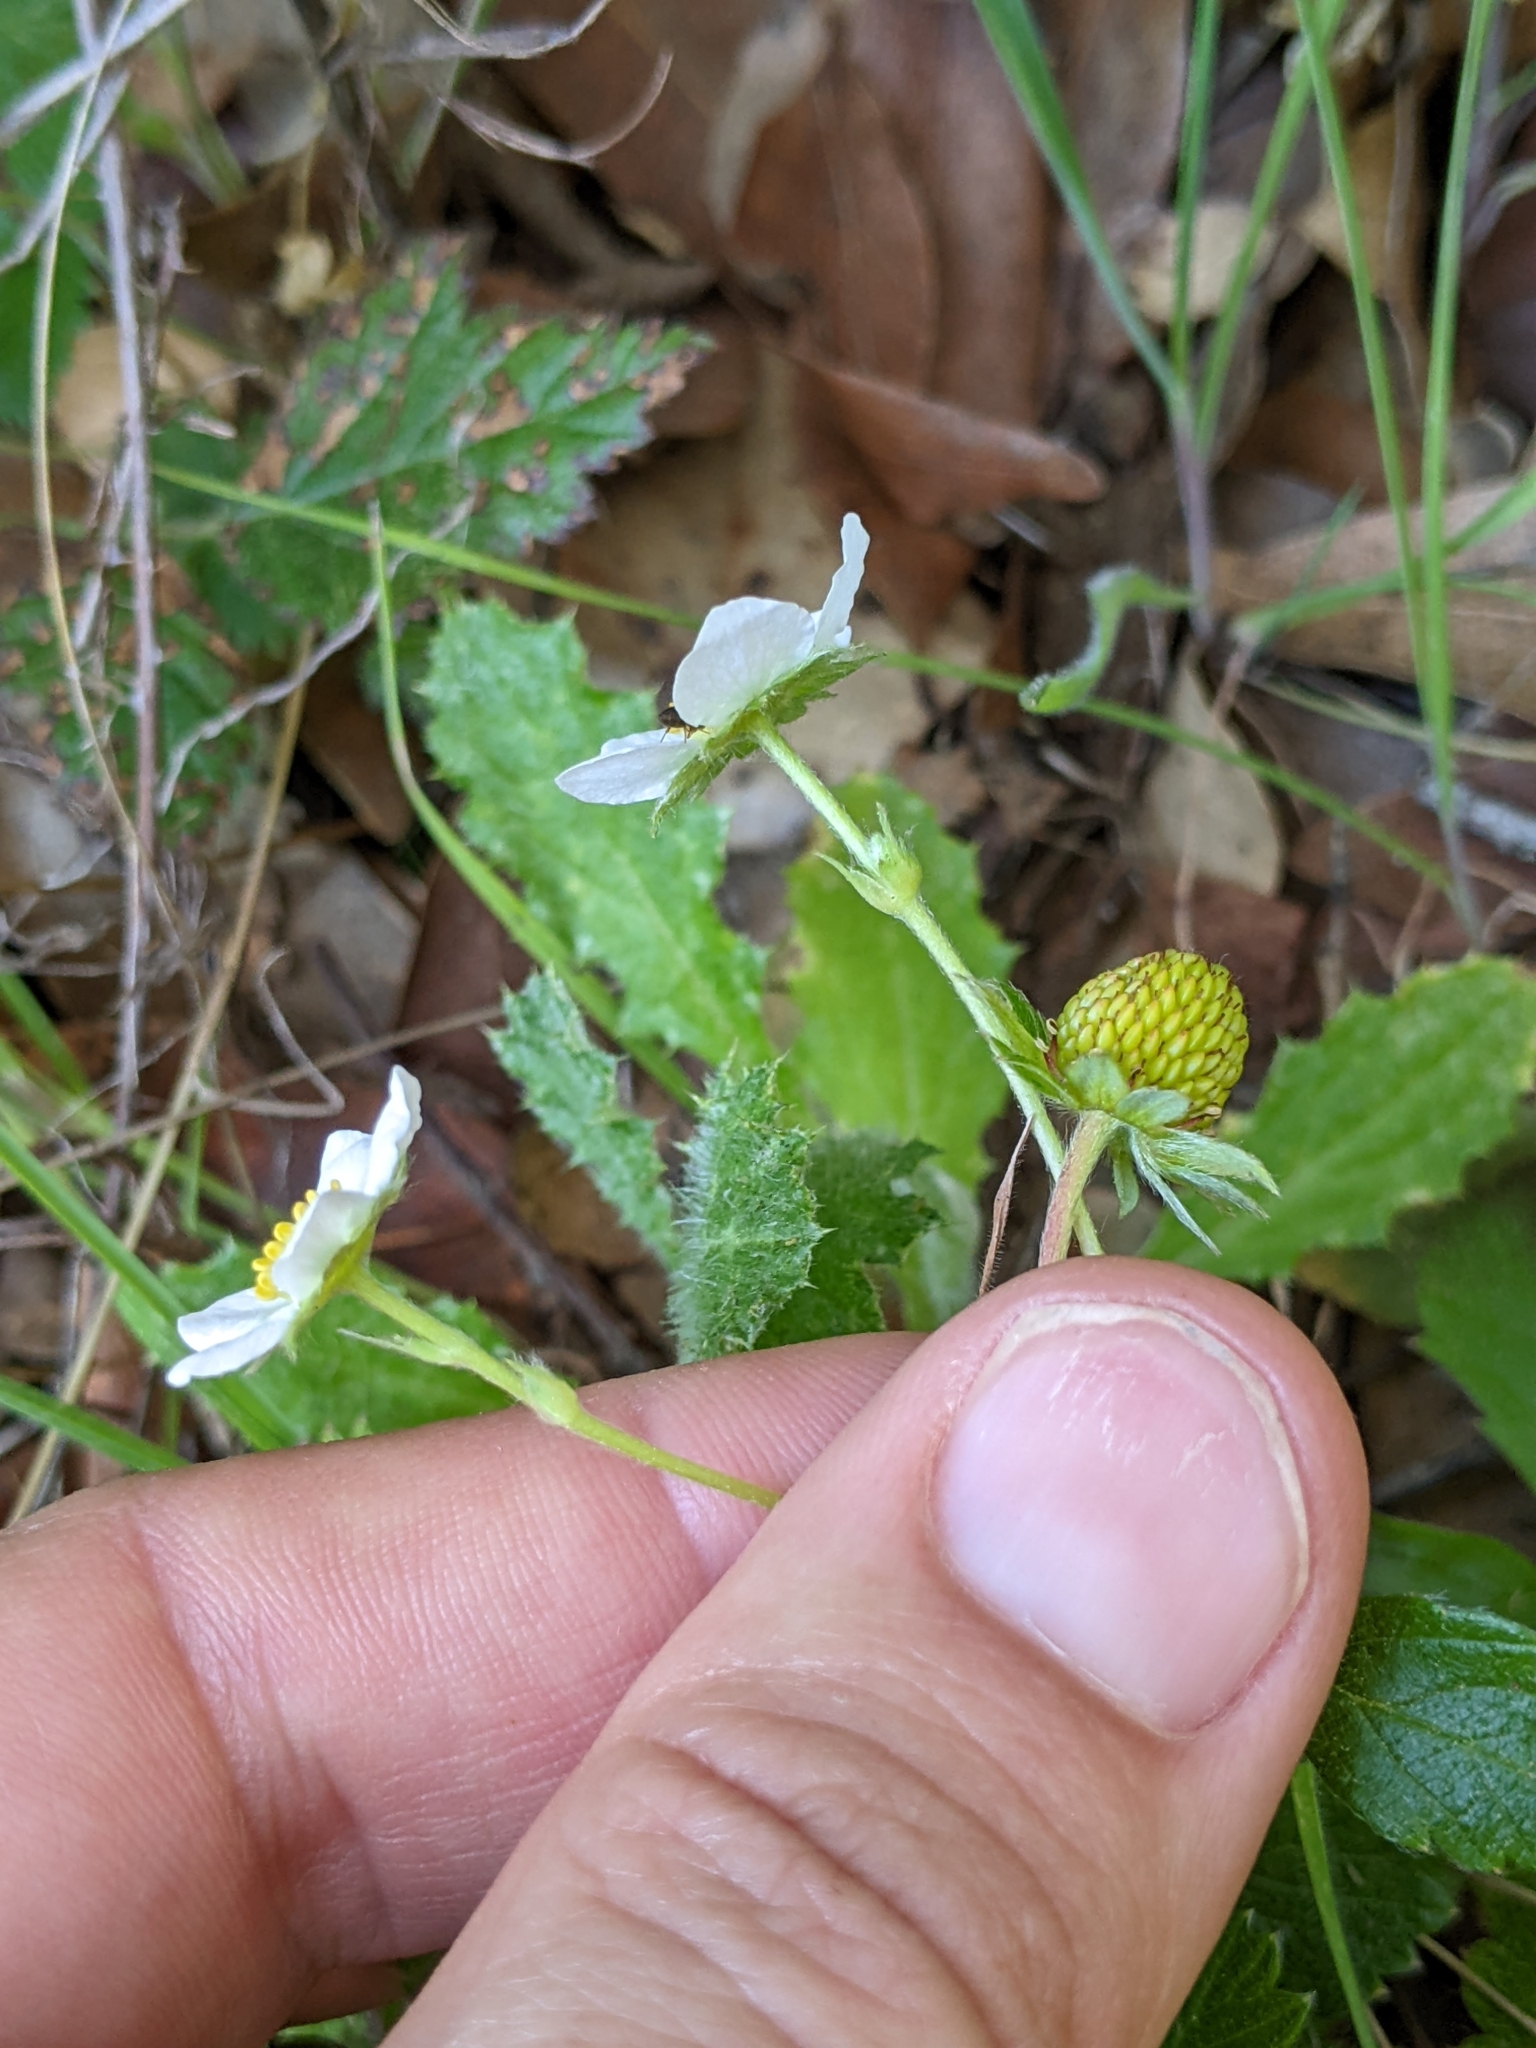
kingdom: Plantae
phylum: Tracheophyta
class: Magnoliopsida
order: Rosales
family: Rosaceae
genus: Fragaria
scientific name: Fragaria vesca
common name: Wild strawberry
